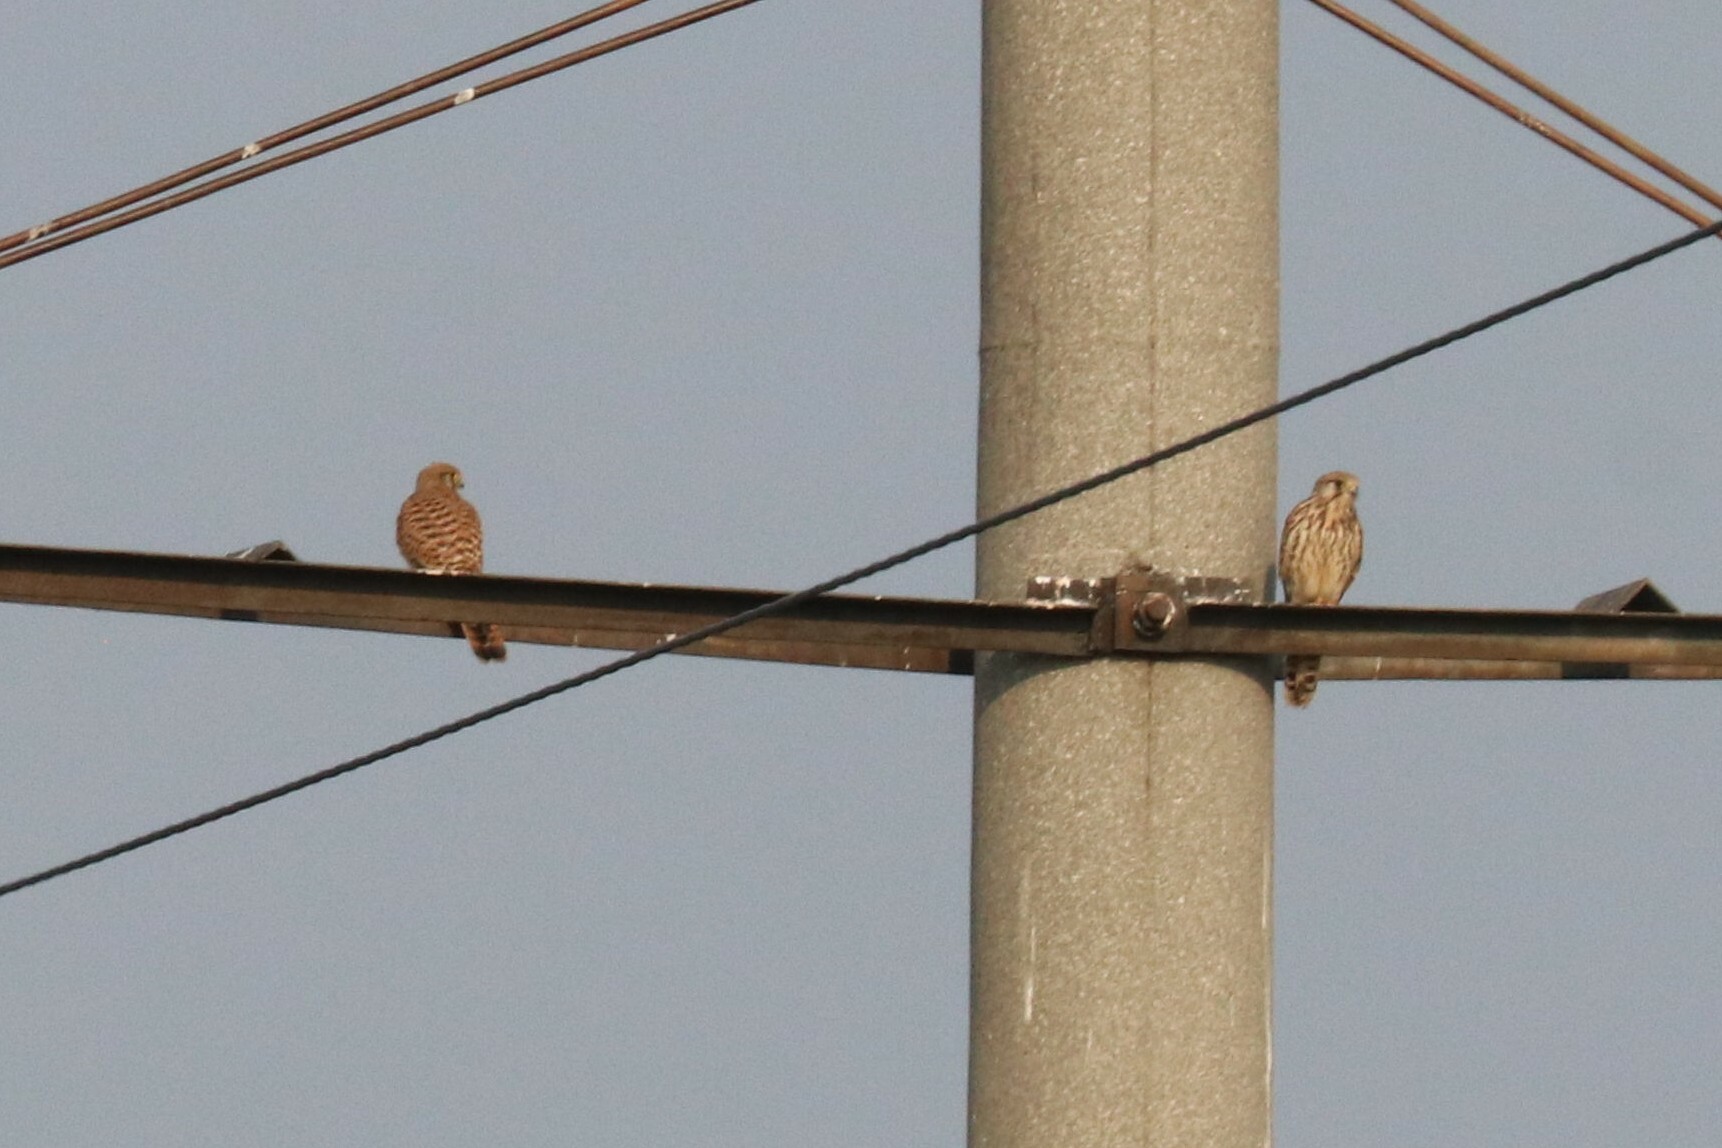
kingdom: Animalia
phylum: Chordata
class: Aves
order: Falconiformes
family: Falconidae
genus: Falco
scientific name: Falco tinnunculus
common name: Common kestrel
